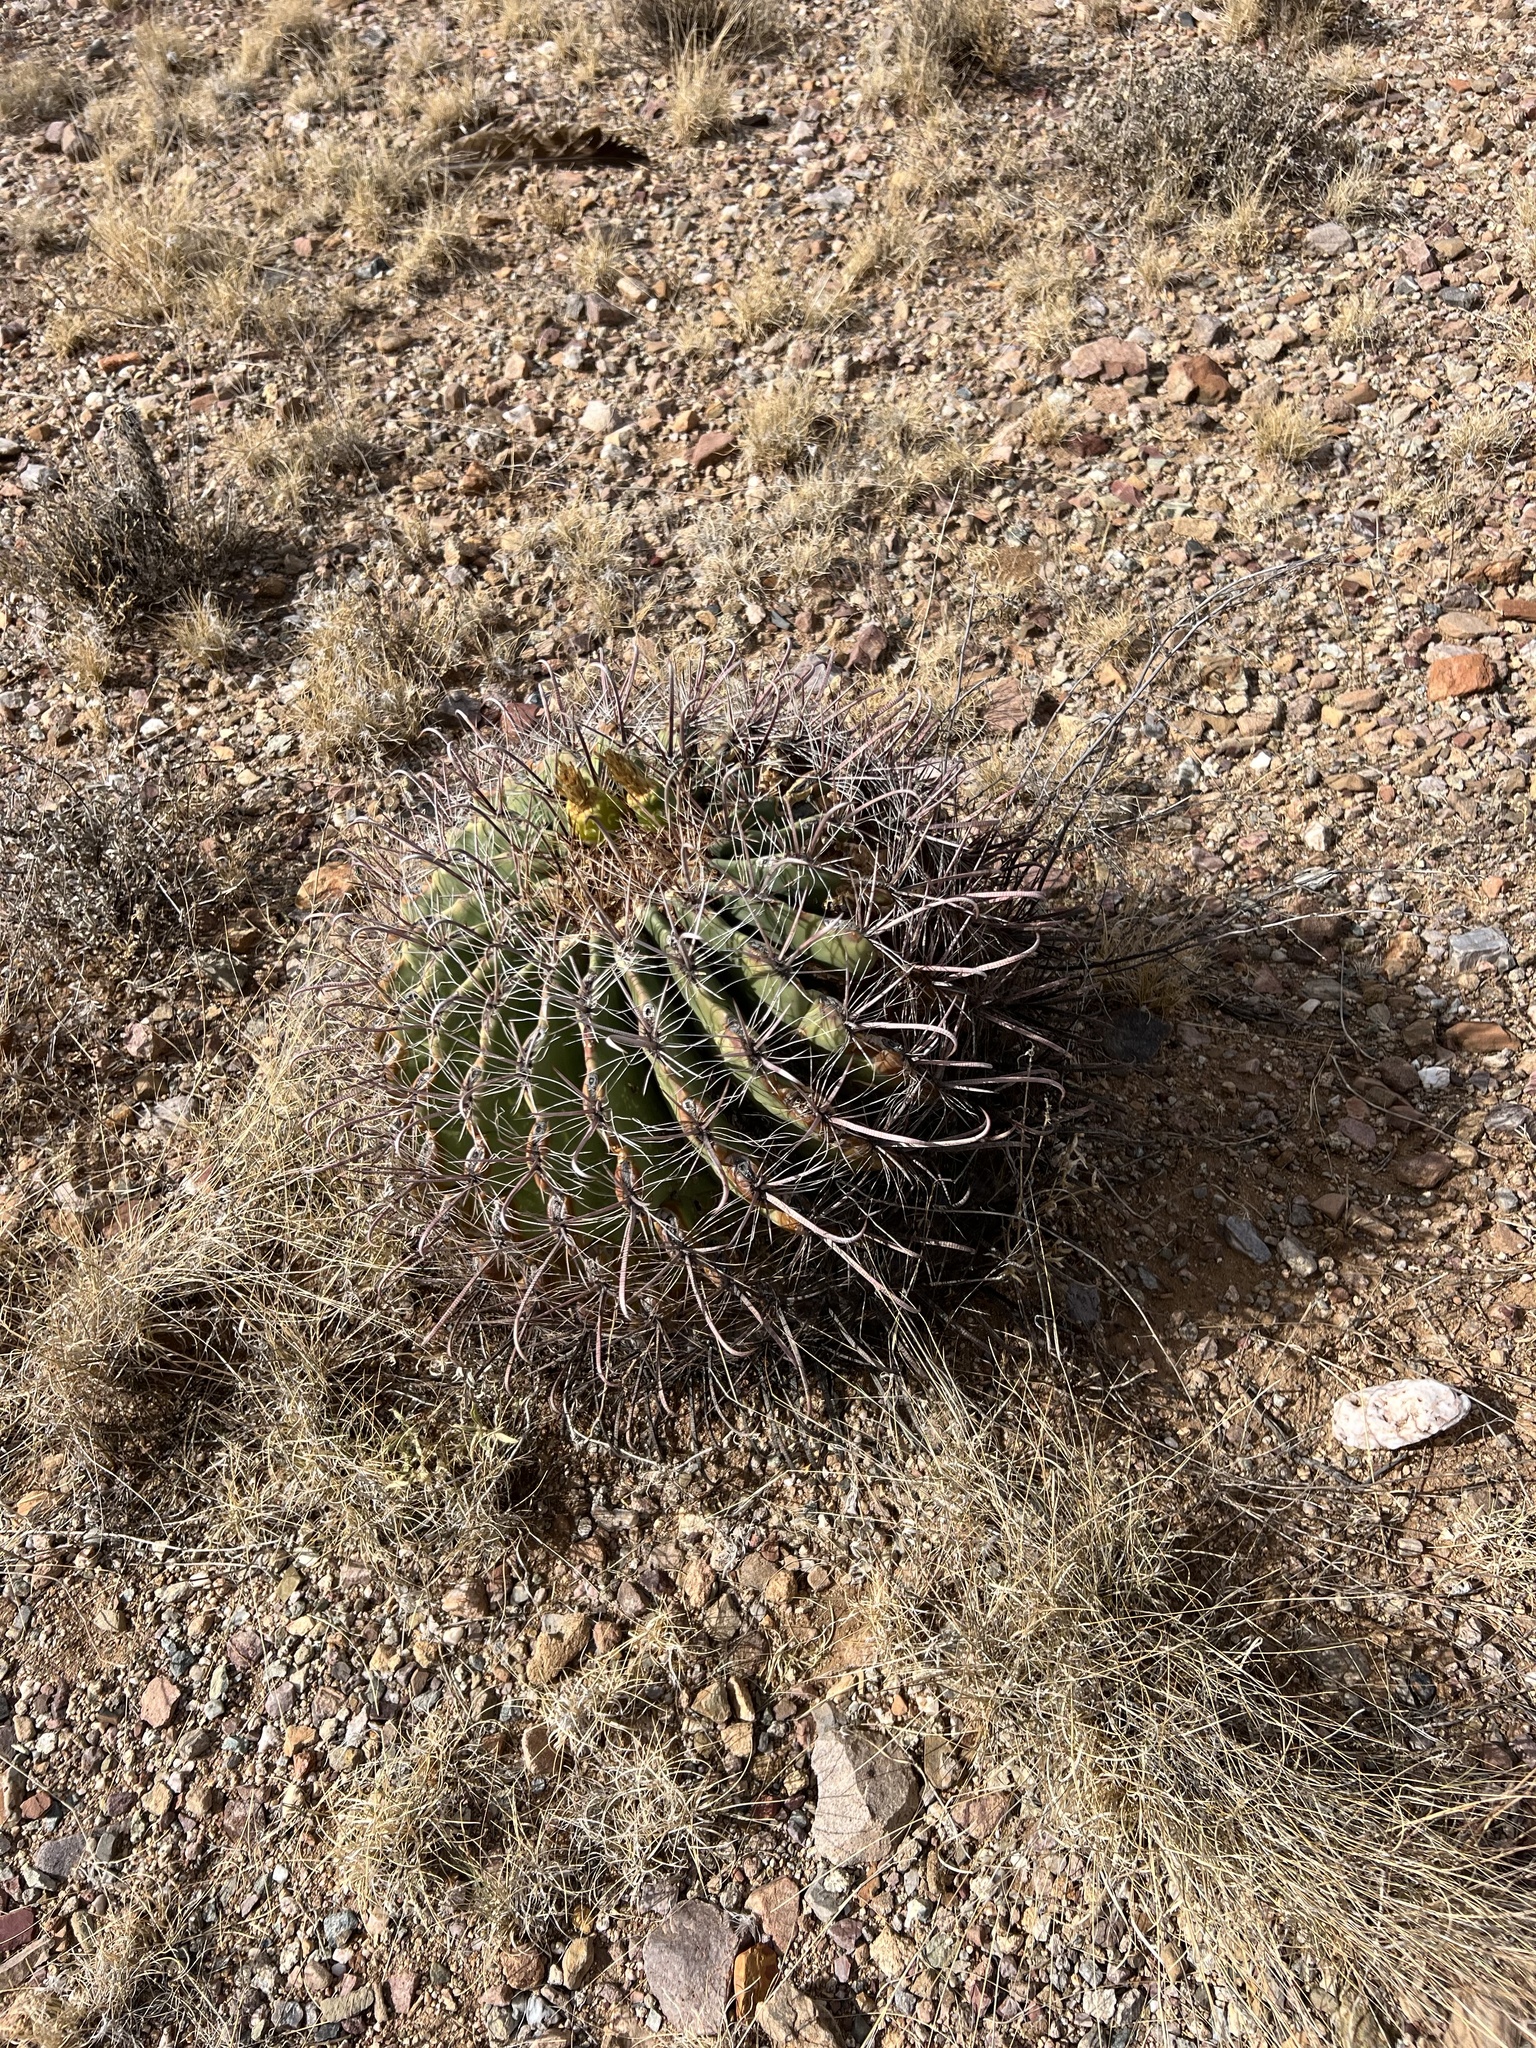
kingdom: Plantae
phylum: Tracheophyta
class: Magnoliopsida
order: Caryophyllales
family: Cactaceae
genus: Ferocactus
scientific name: Ferocactus wislizeni
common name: Candy barrel cactus
